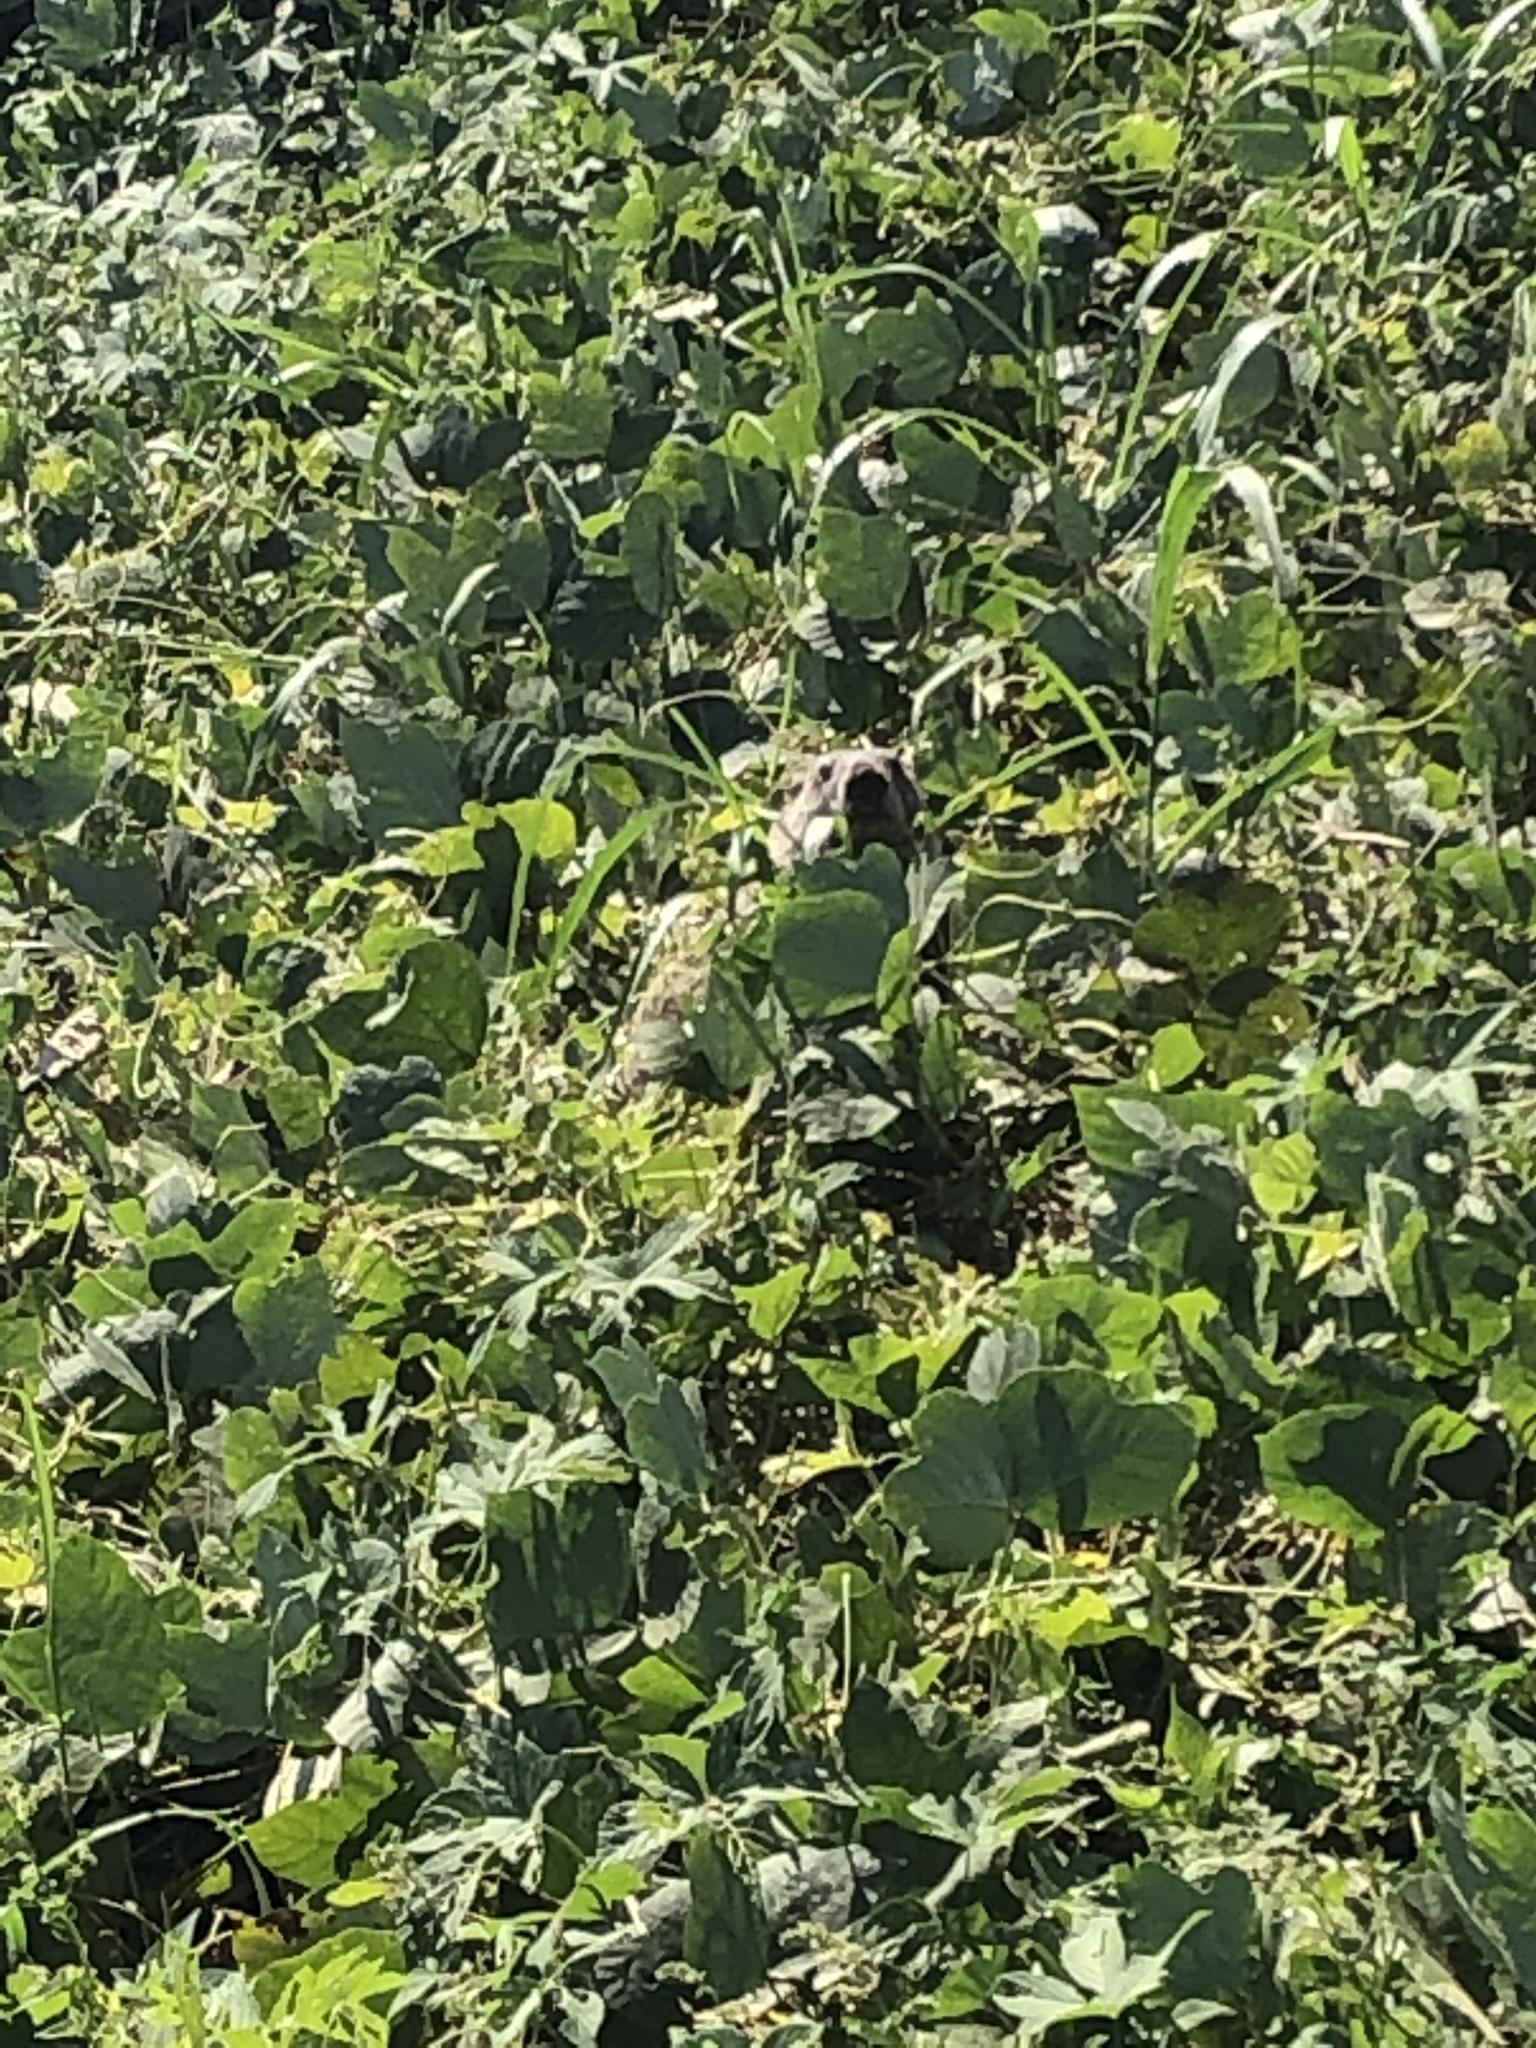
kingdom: Animalia
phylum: Chordata
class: Mammalia
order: Rodentia
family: Sciuridae
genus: Marmota
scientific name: Marmota monax
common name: Groundhog
